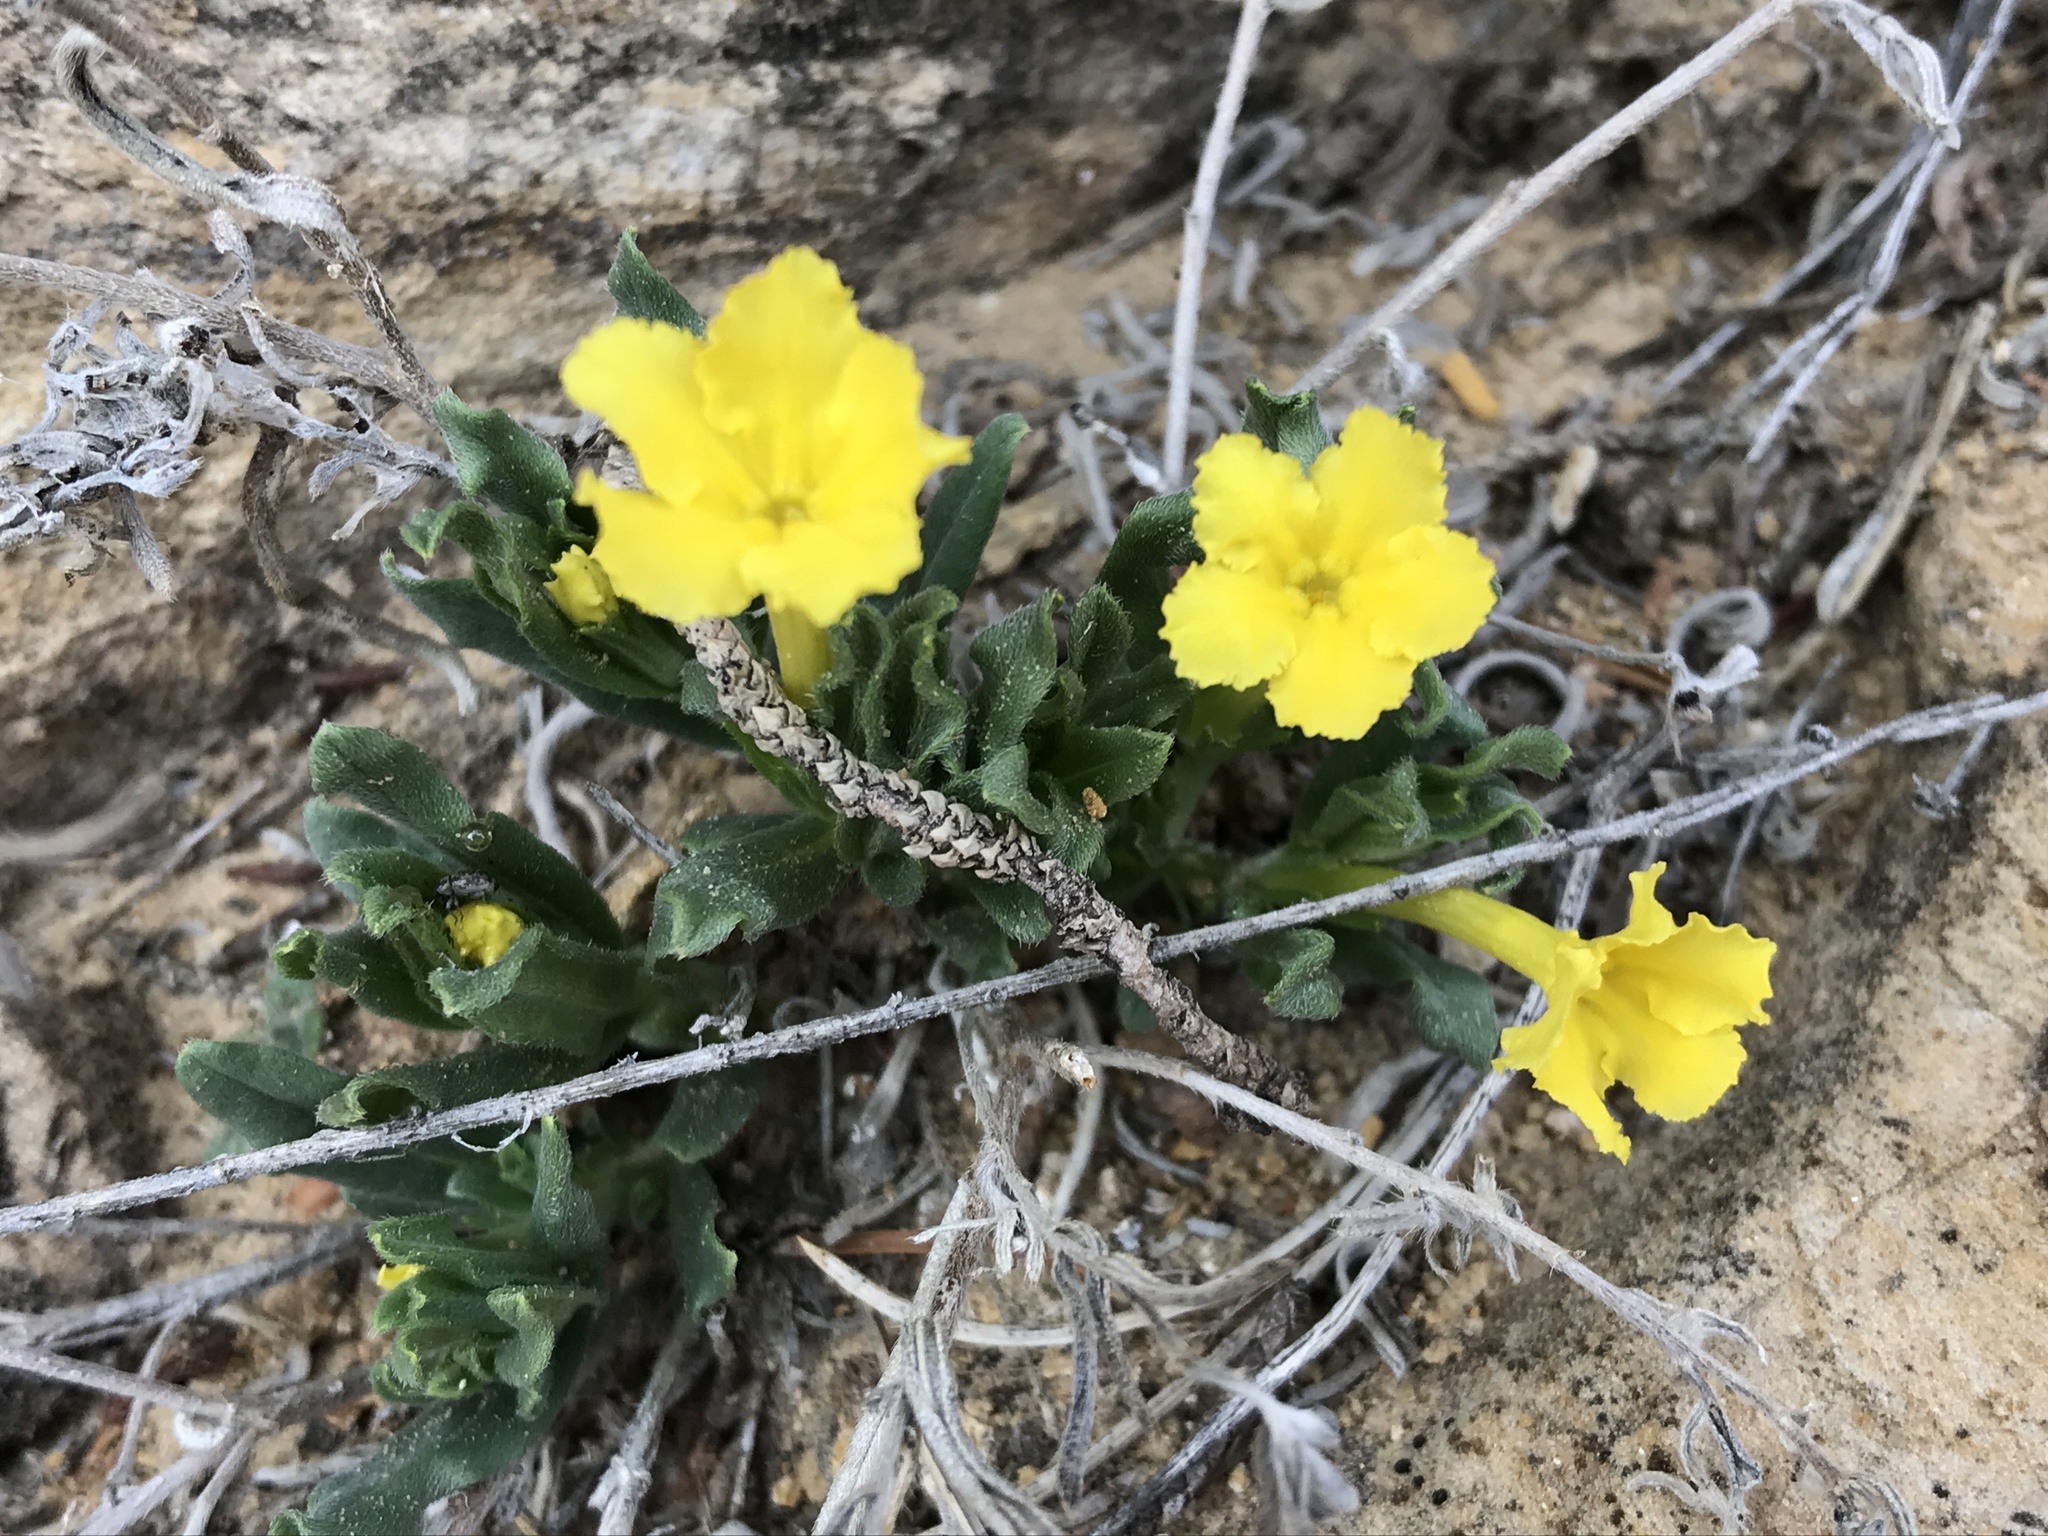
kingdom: Plantae
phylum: Tracheophyta
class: Magnoliopsida
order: Boraginales
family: Boraginaceae
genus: Lithospermum
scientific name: Lithospermum incisum
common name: Fringed gromwell
